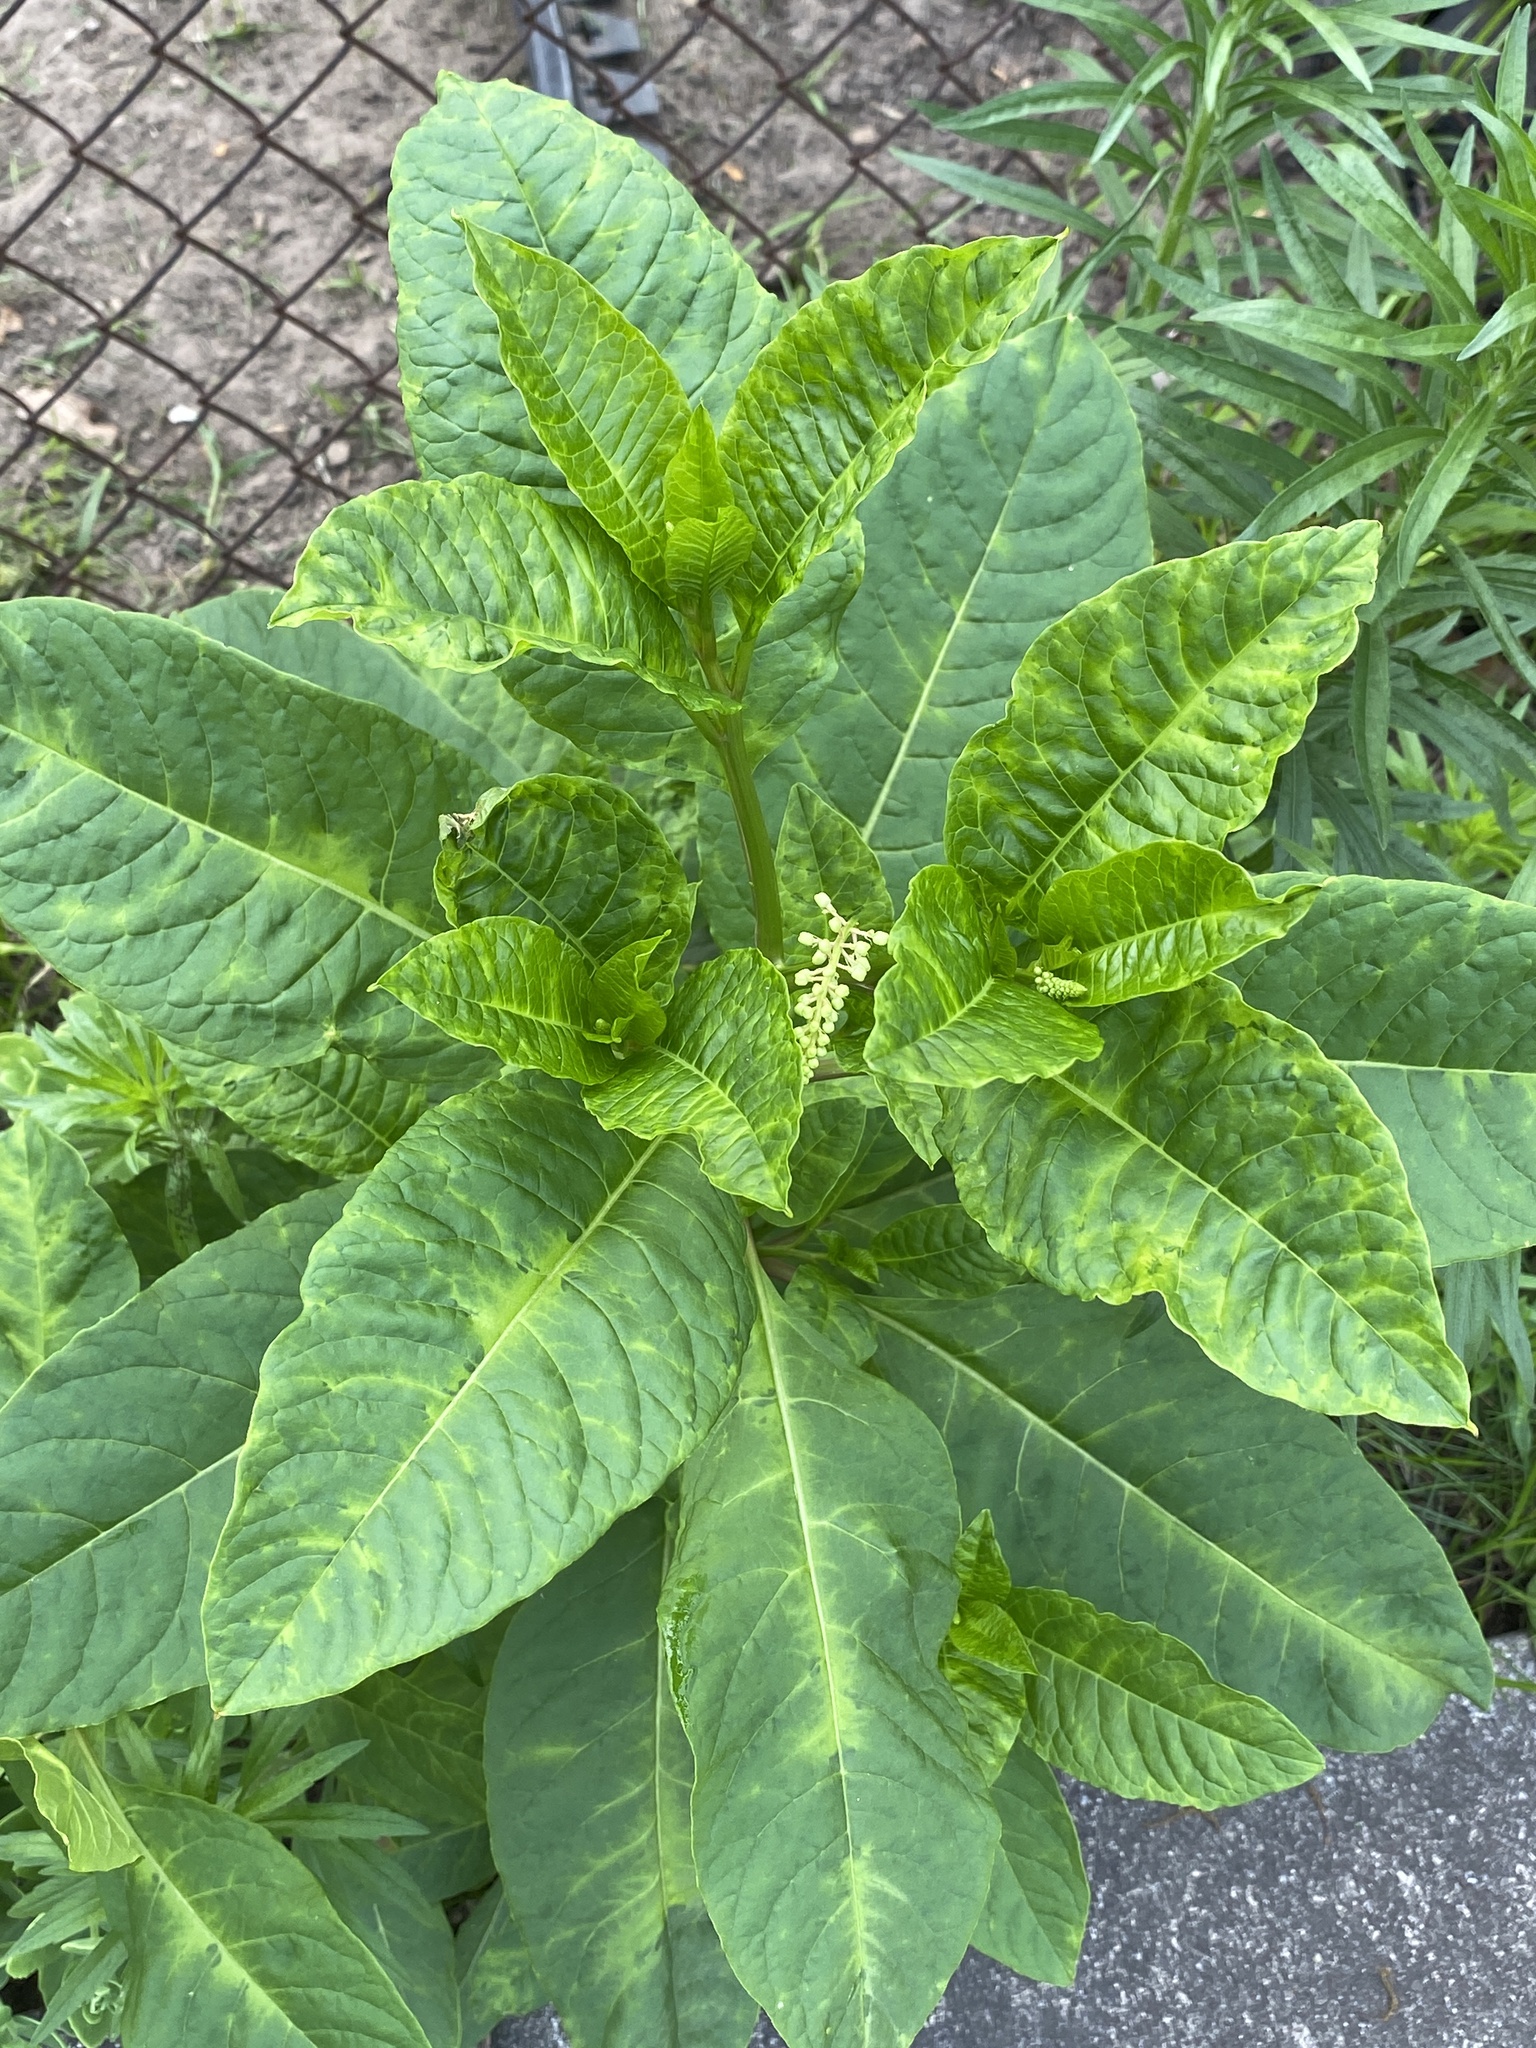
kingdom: Plantae
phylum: Tracheophyta
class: Magnoliopsida
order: Caryophyllales
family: Phytolaccaceae
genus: Phytolacca
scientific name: Phytolacca americana
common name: American pokeweed
